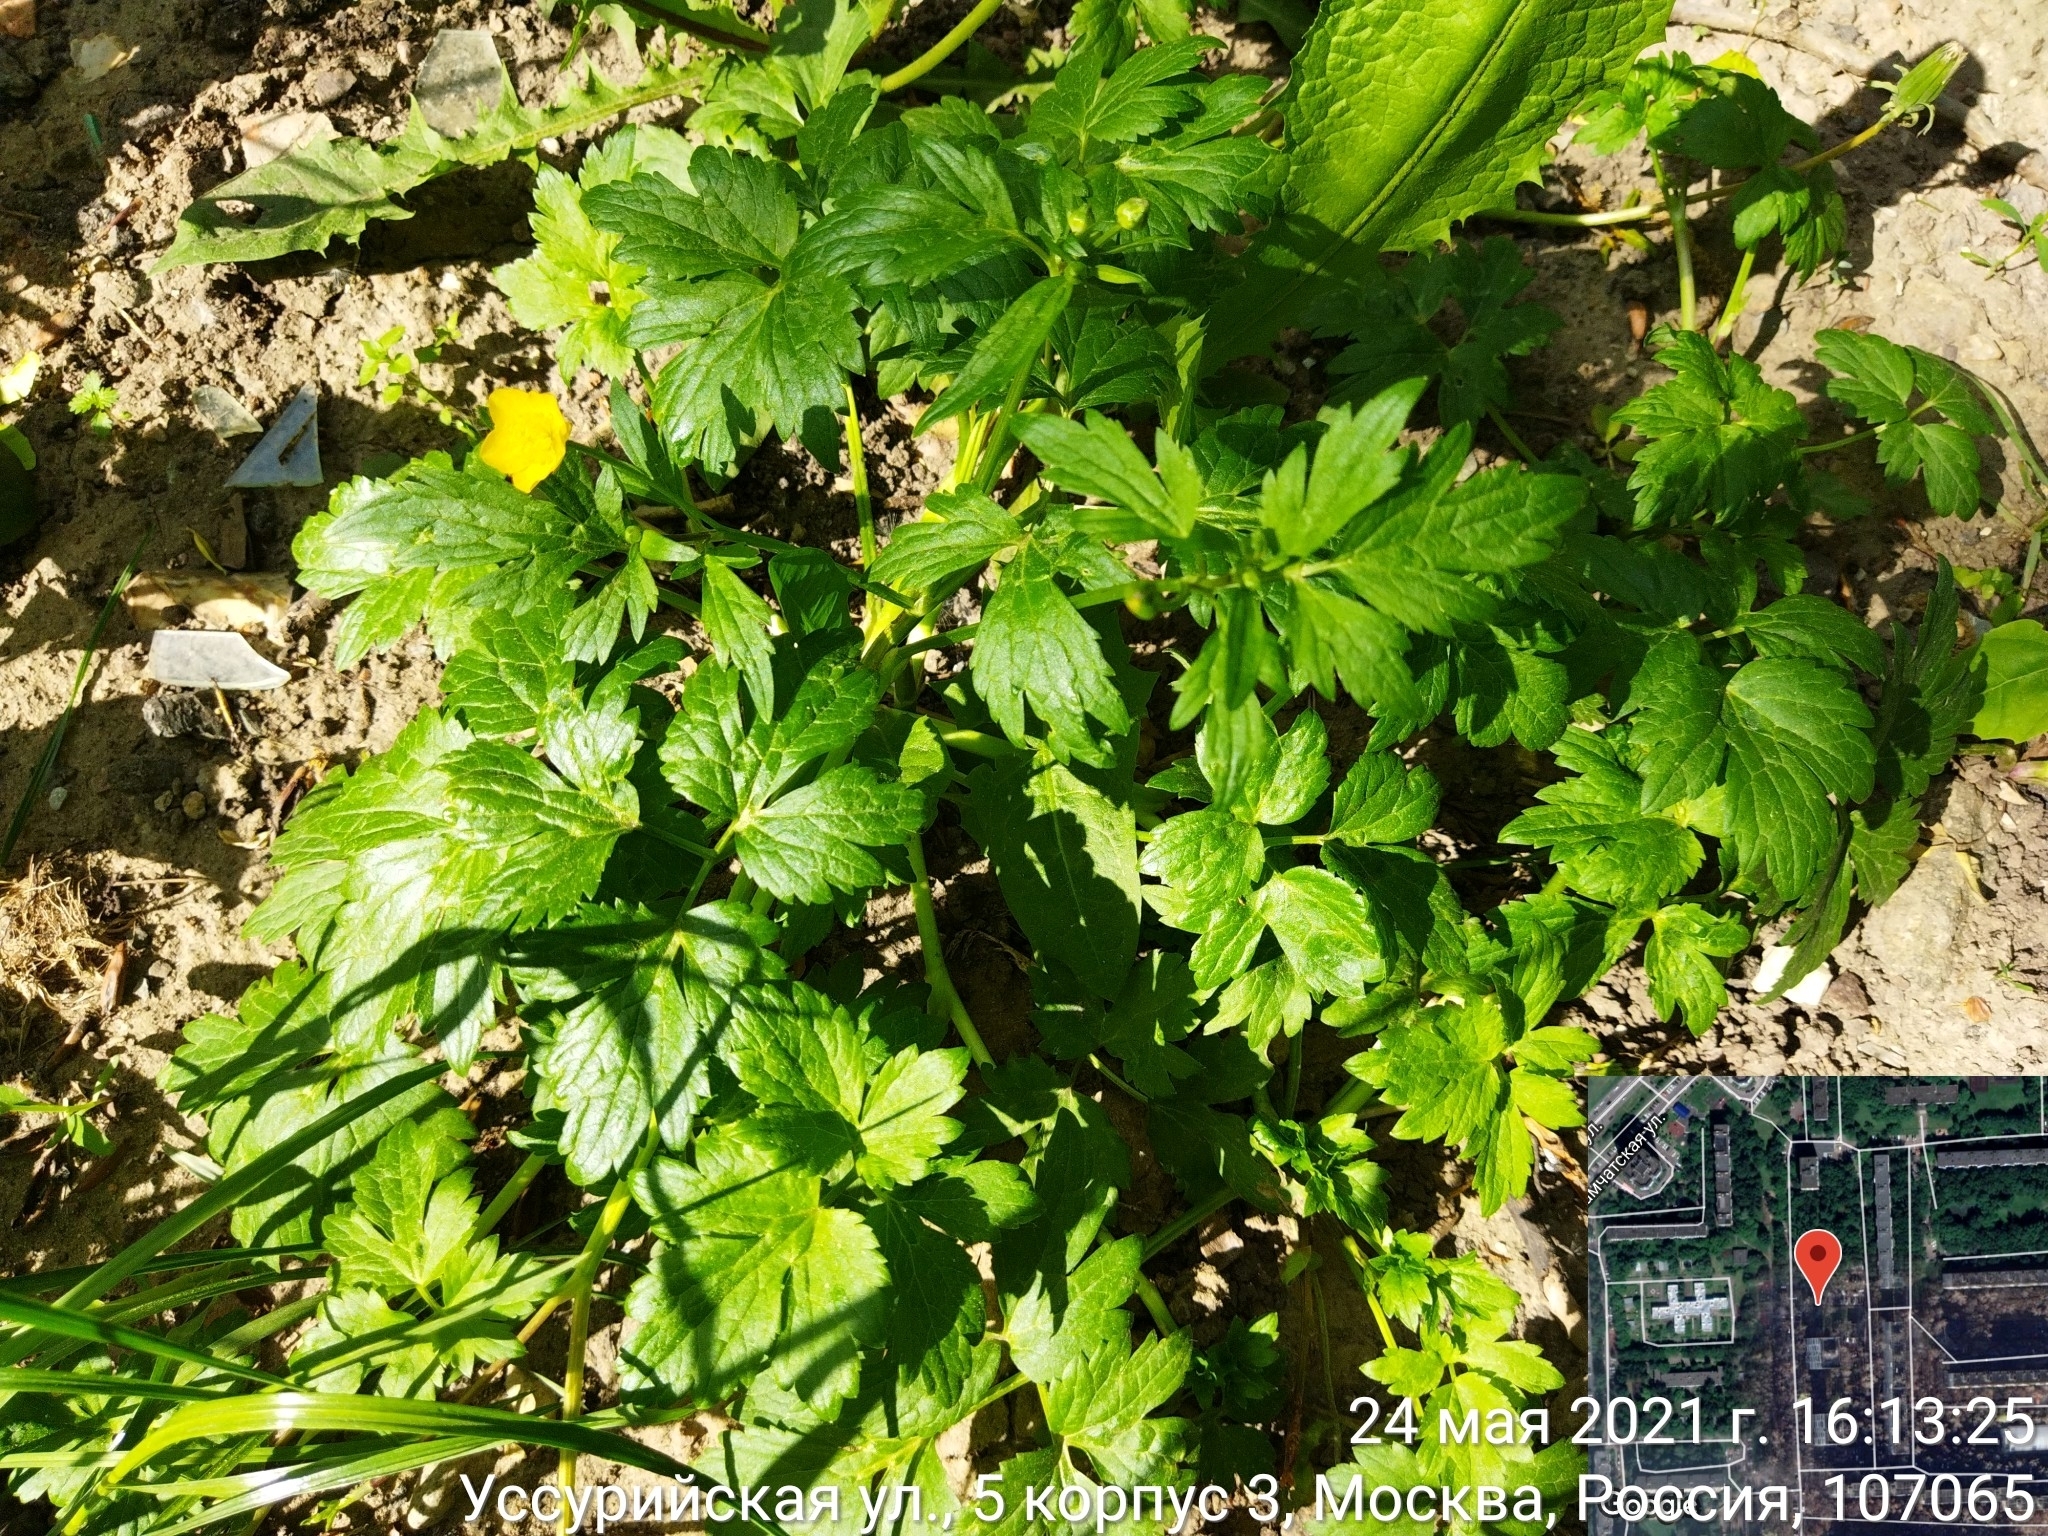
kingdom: Plantae
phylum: Tracheophyta
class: Magnoliopsida
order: Ranunculales
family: Ranunculaceae
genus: Ranunculus
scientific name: Ranunculus repens
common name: Creeping buttercup
